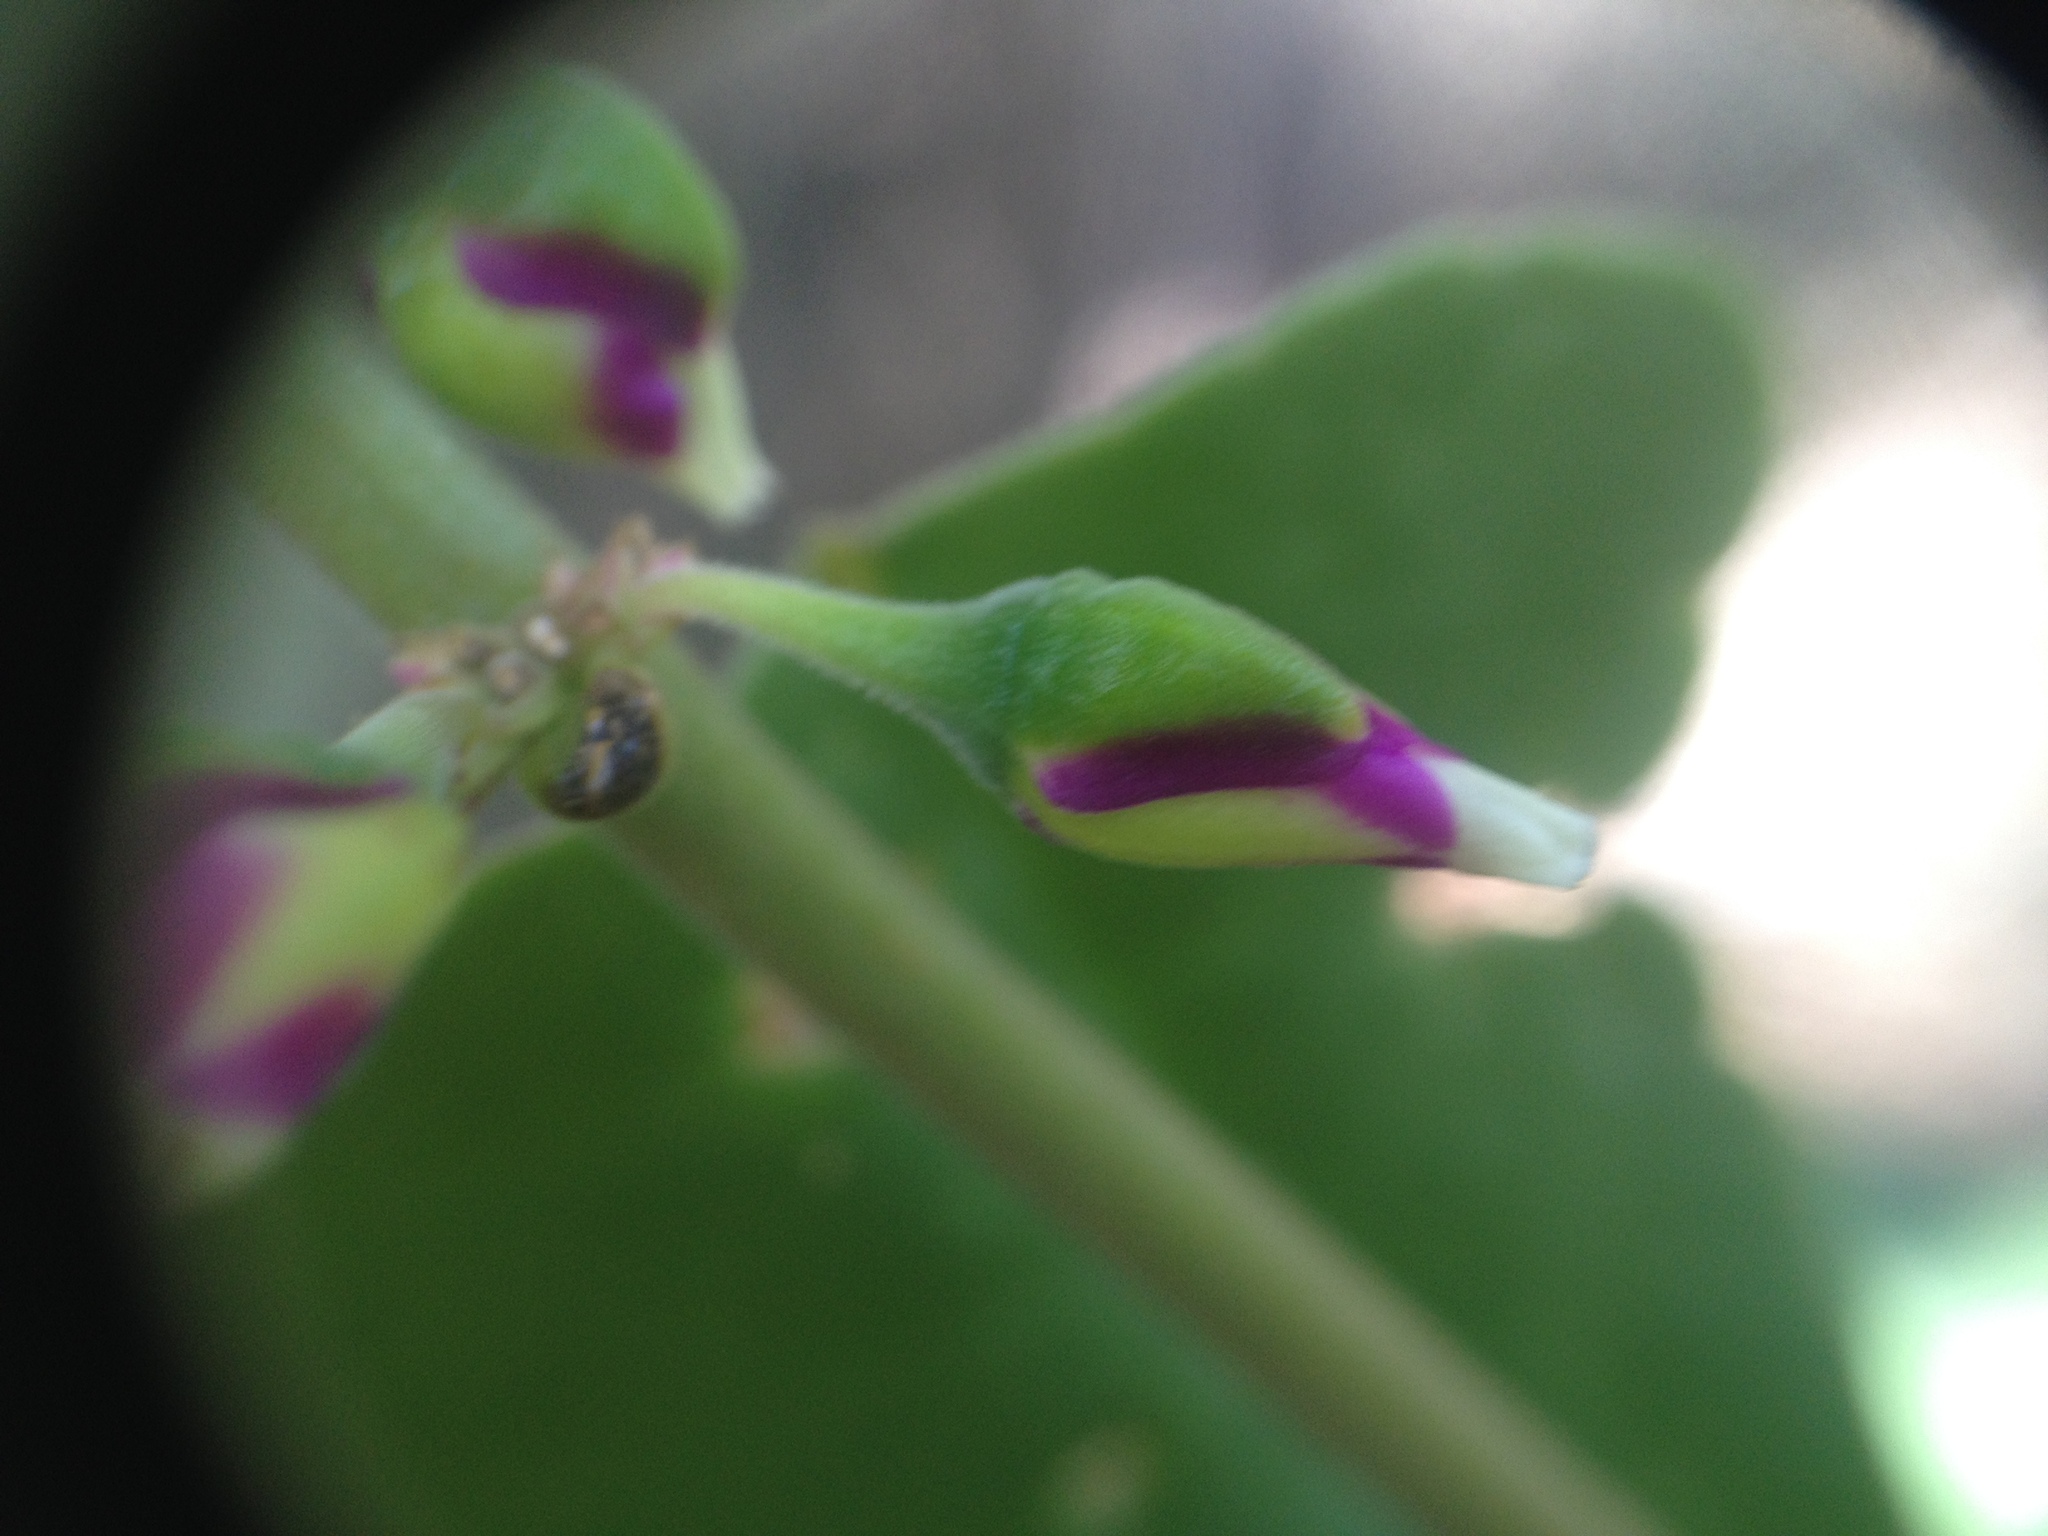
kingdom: Plantae
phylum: Tracheophyta
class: Magnoliopsida
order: Caryophyllales
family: Talinaceae
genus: Amphipetalum
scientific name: Amphipetalum paraguayense
